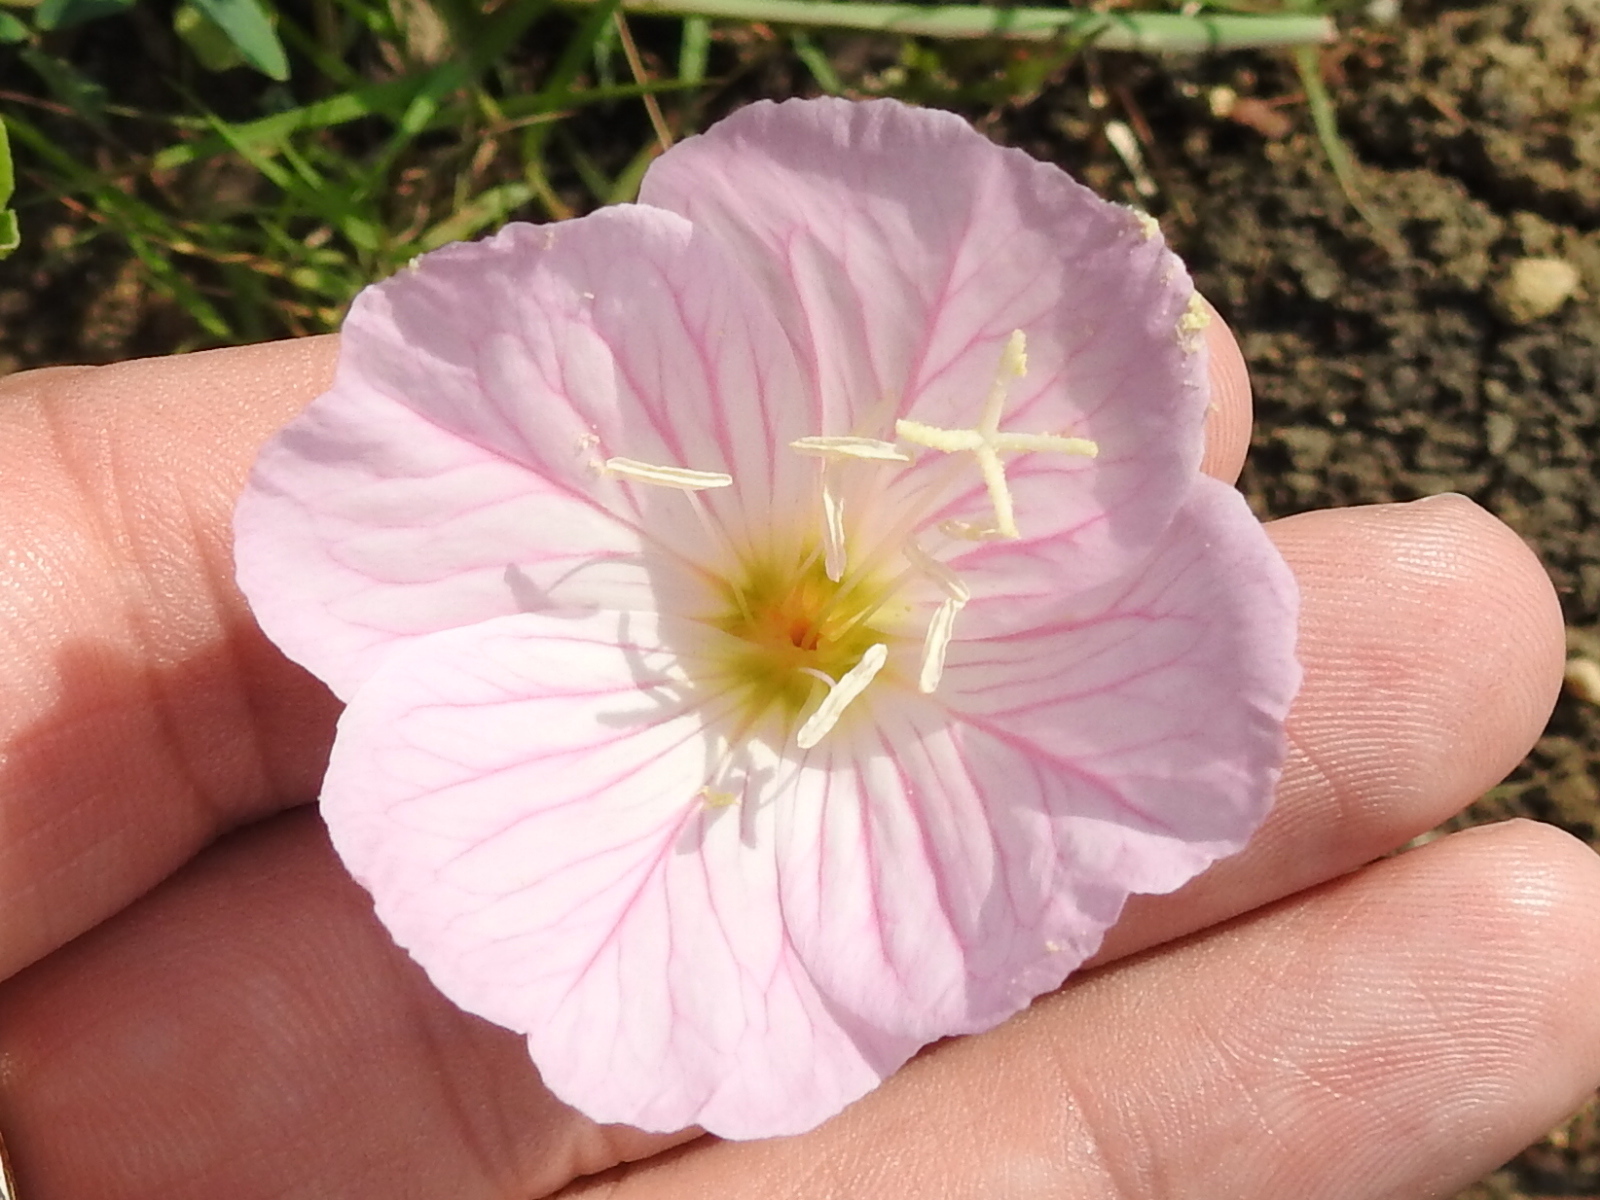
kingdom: Plantae
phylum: Tracheophyta
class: Magnoliopsida
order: Myrtales
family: Onagraceae
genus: Oenothera
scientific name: Oenothera speciosa
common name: White evening-primrose
